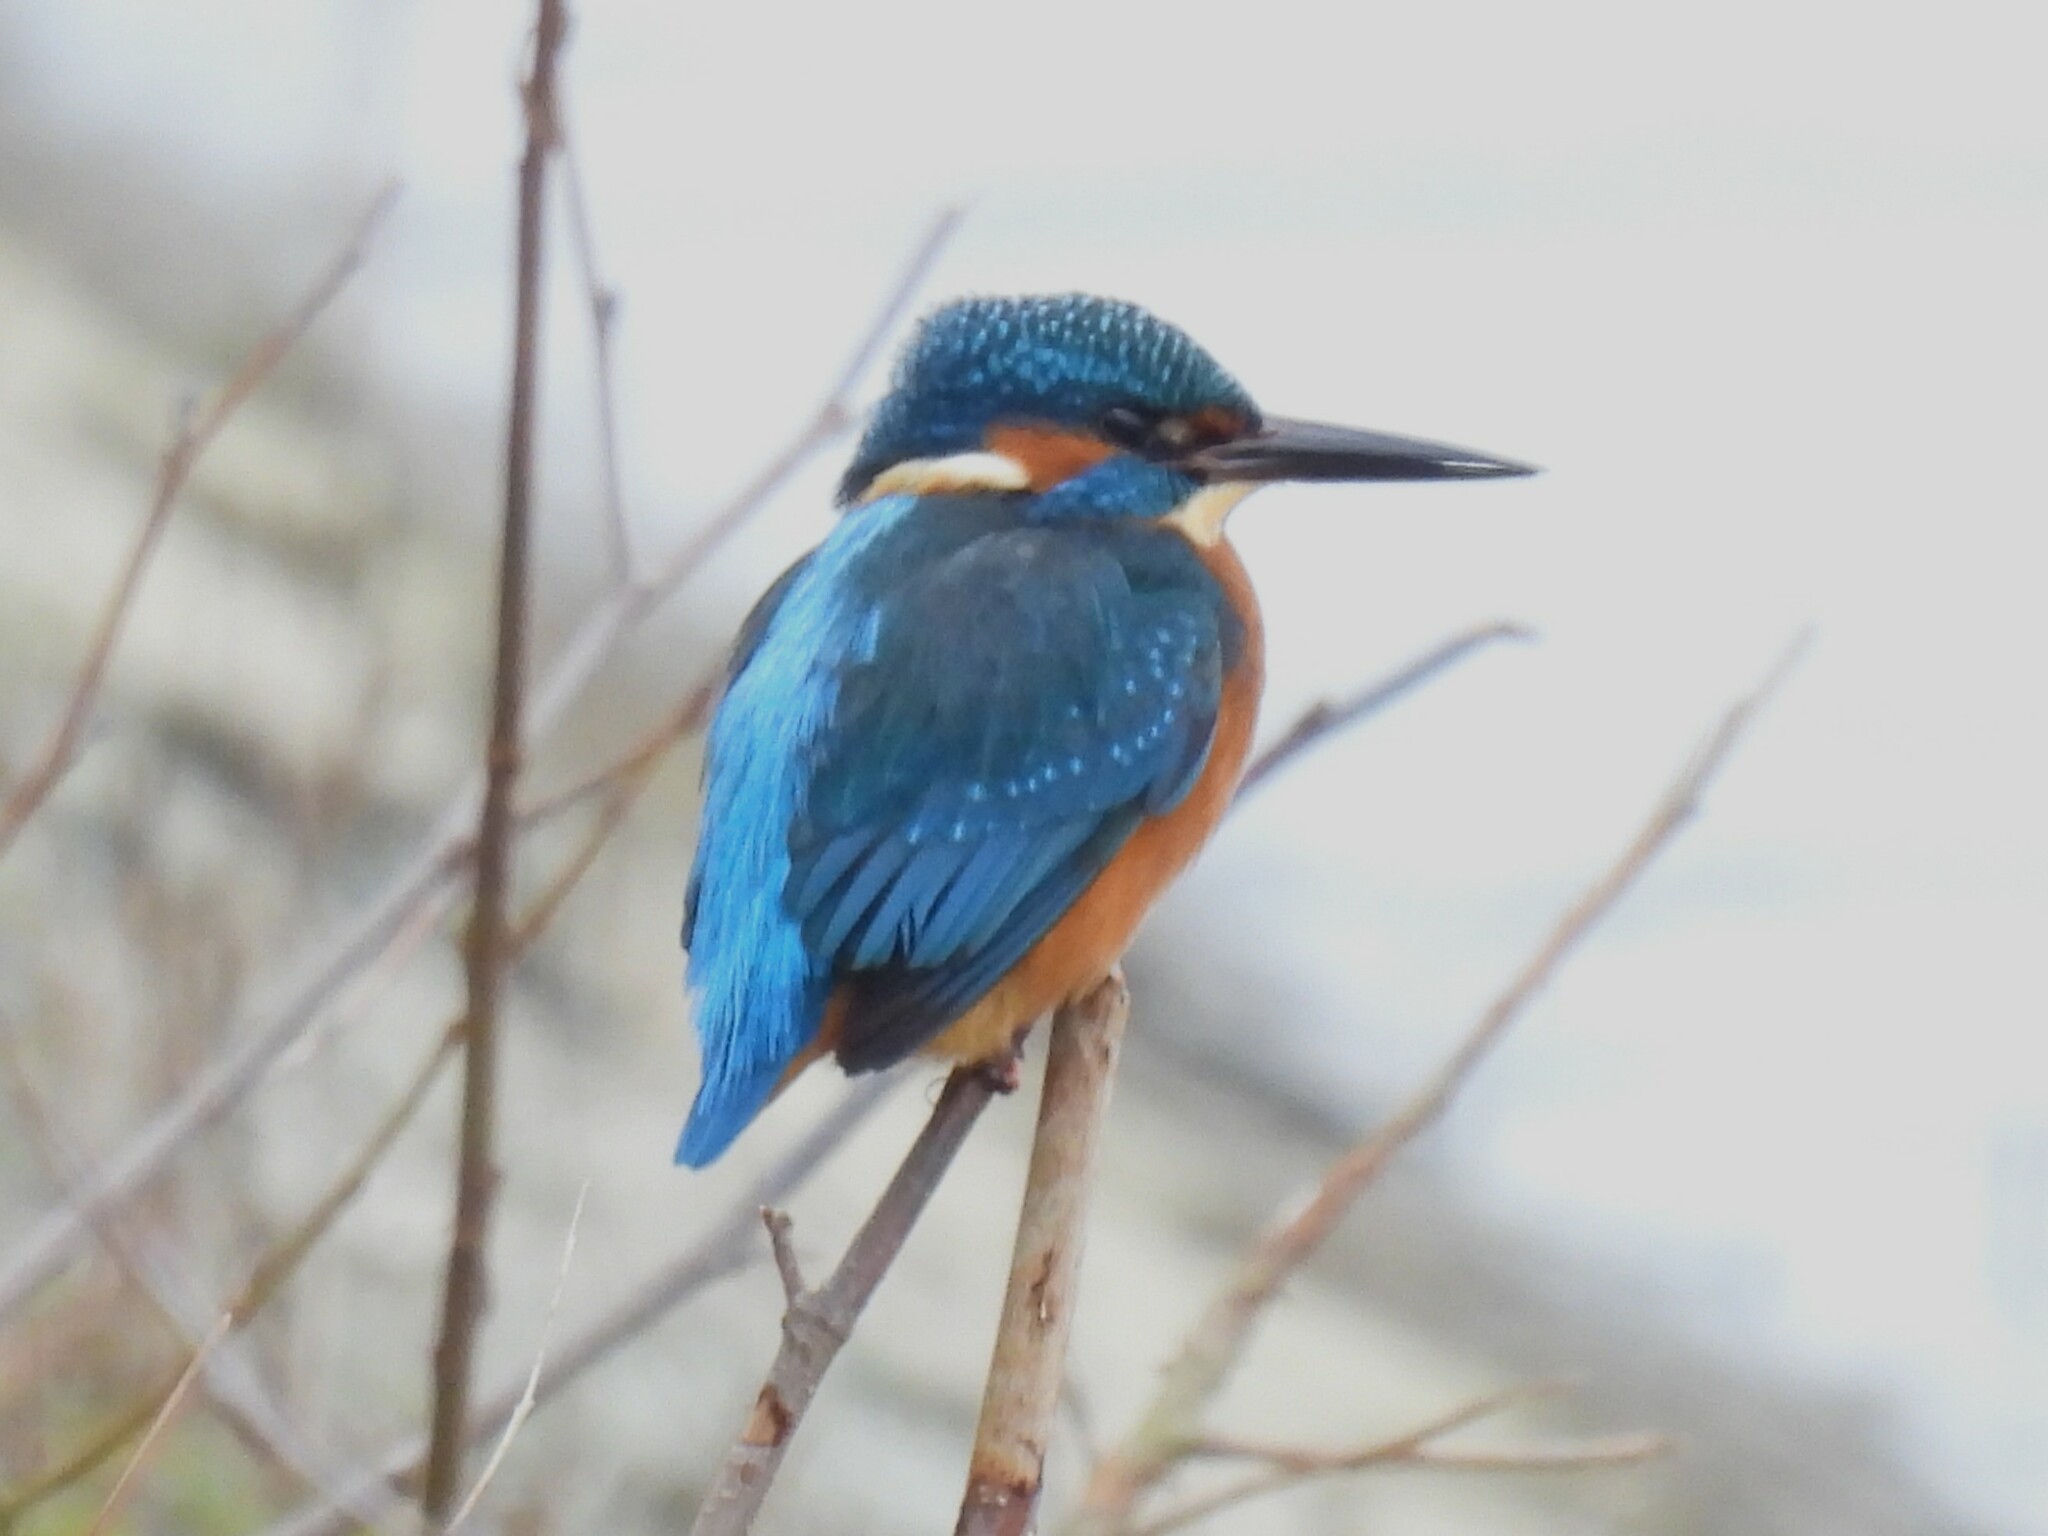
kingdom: Animalia
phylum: Chordata
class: Aves
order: Coraciiformes
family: Alcedinidae
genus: Alcedo
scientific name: Alcedo atthis
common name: Common kingfisher
